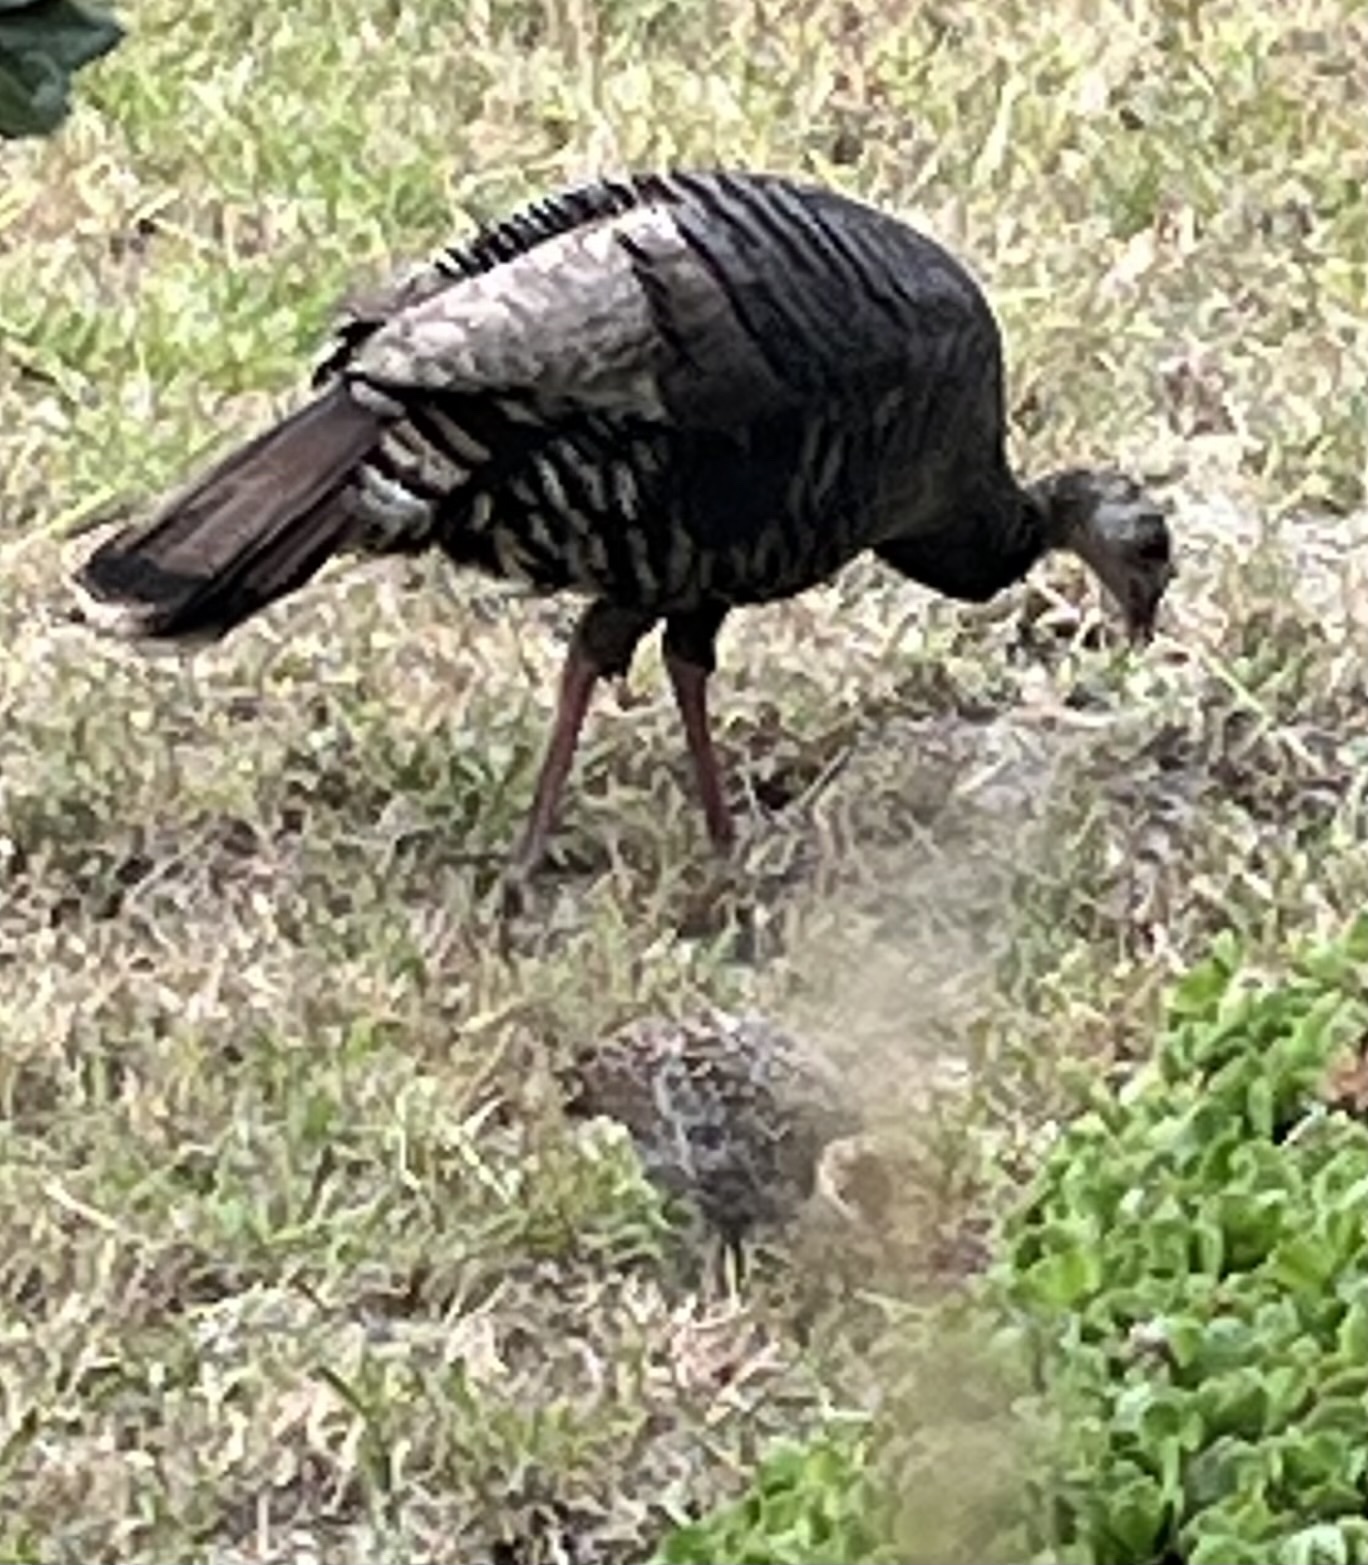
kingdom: Animalia
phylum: Chordata
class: Aves
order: Galliformes
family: Phasianidae
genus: Meleagris
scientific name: Meleagris gallopavo
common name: Wild turkey
